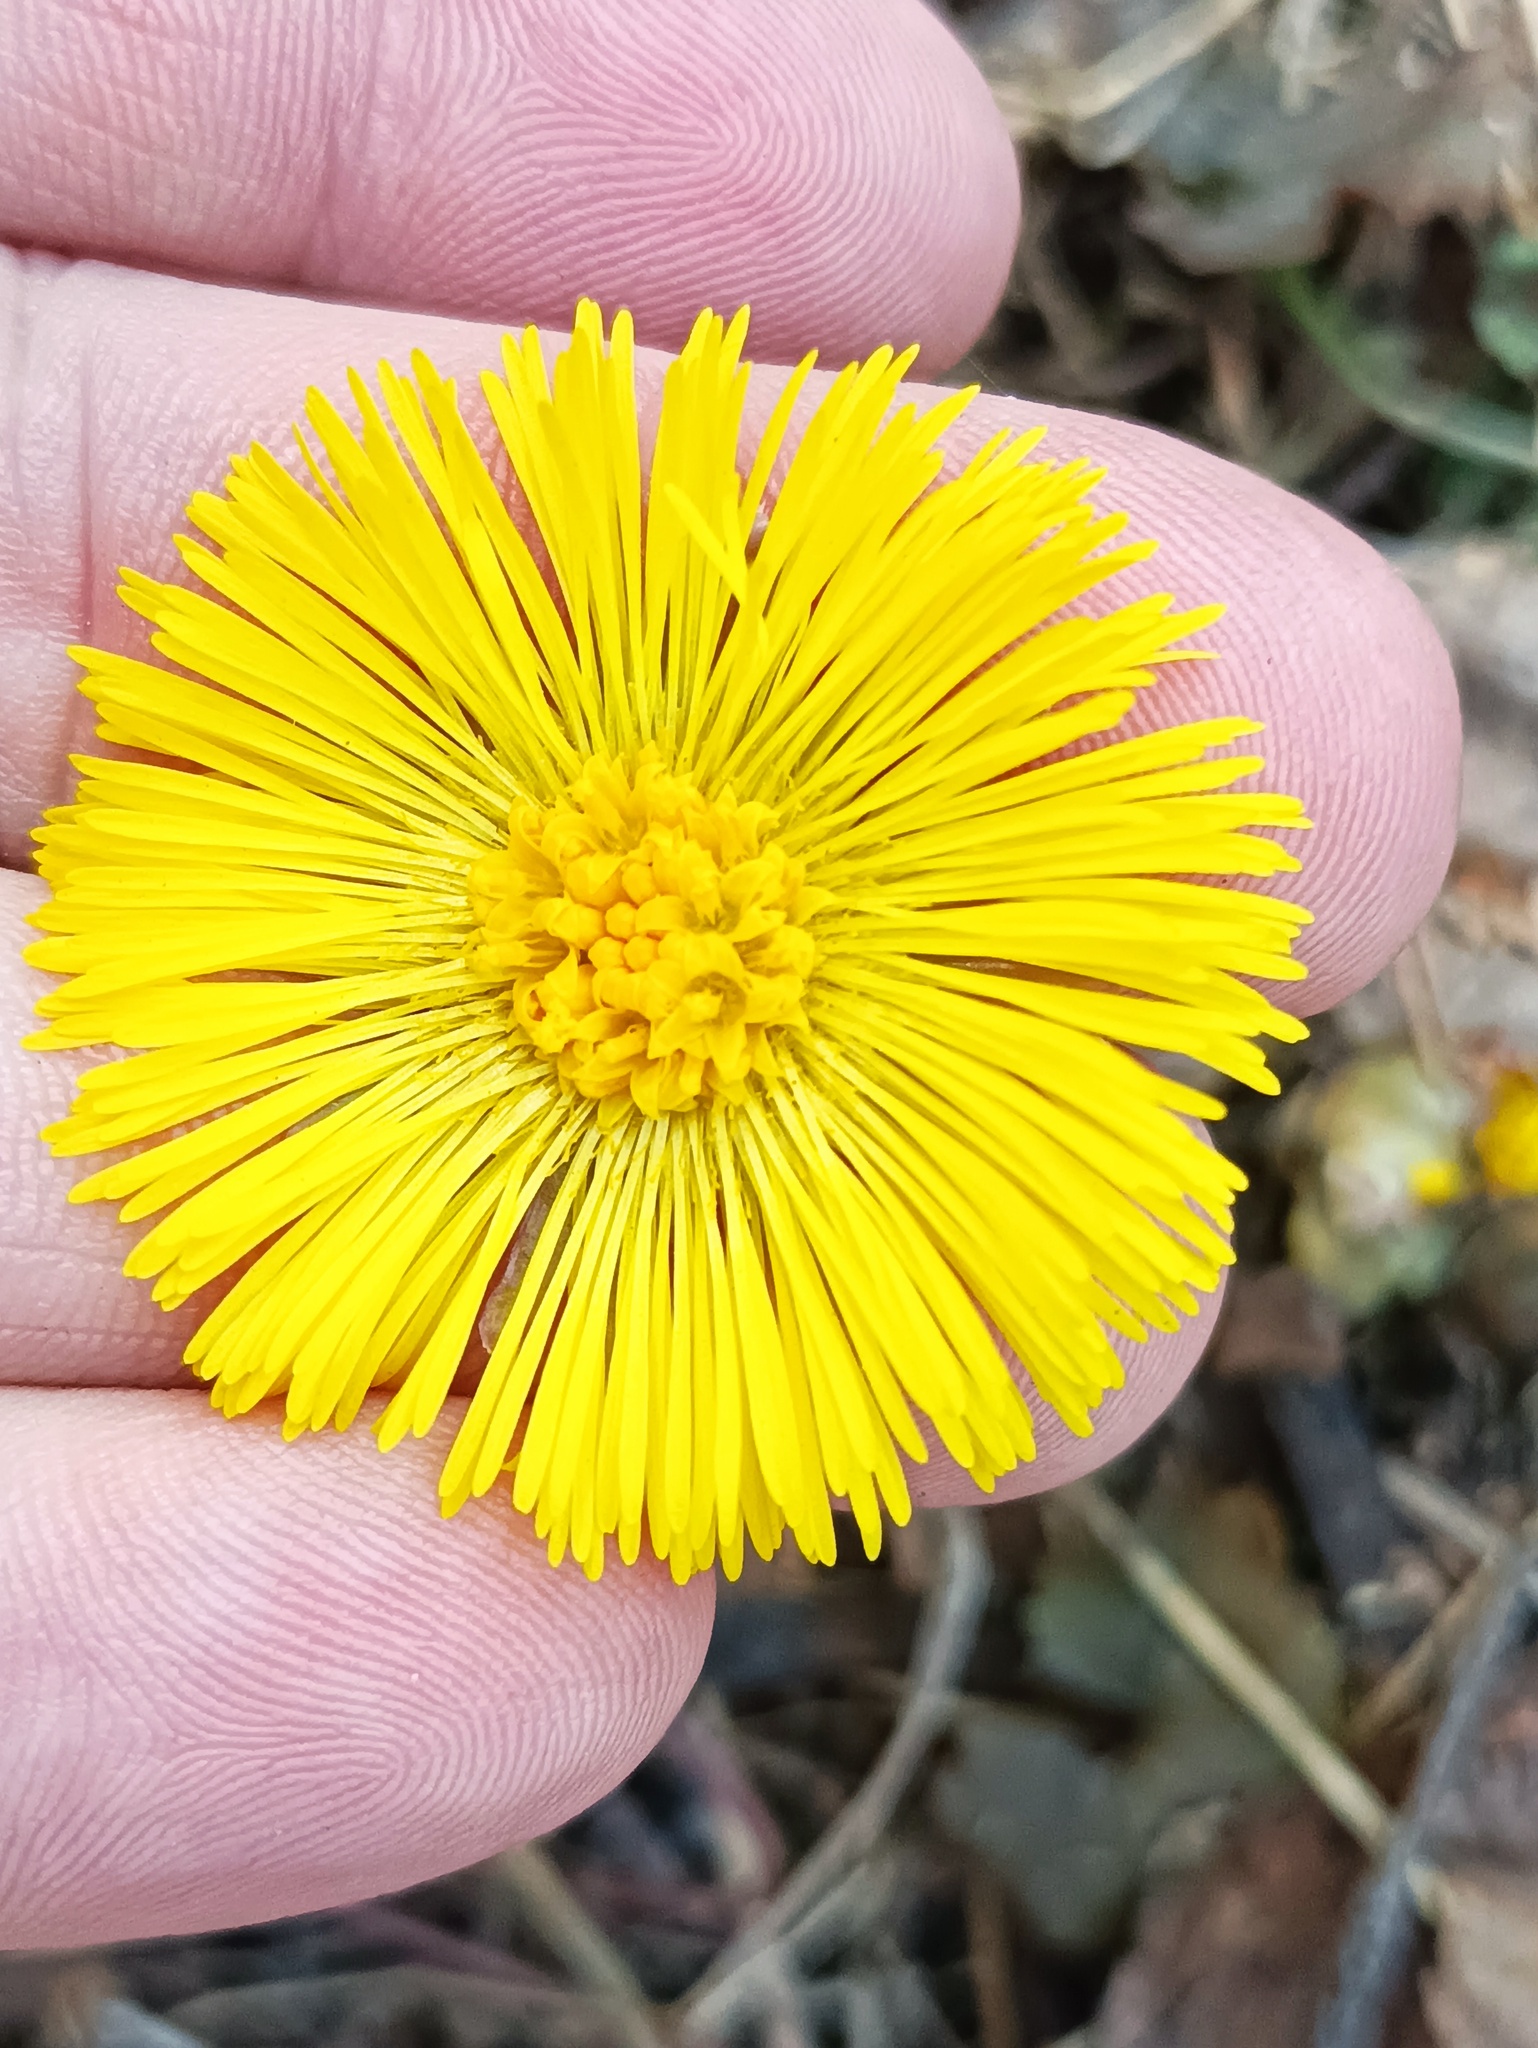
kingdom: Plantae
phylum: Tracheophyta
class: Magnoliopsida
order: Asterales
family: Asteraceae
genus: Tussilago
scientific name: Tussilago farfara
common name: Coltsfoot
